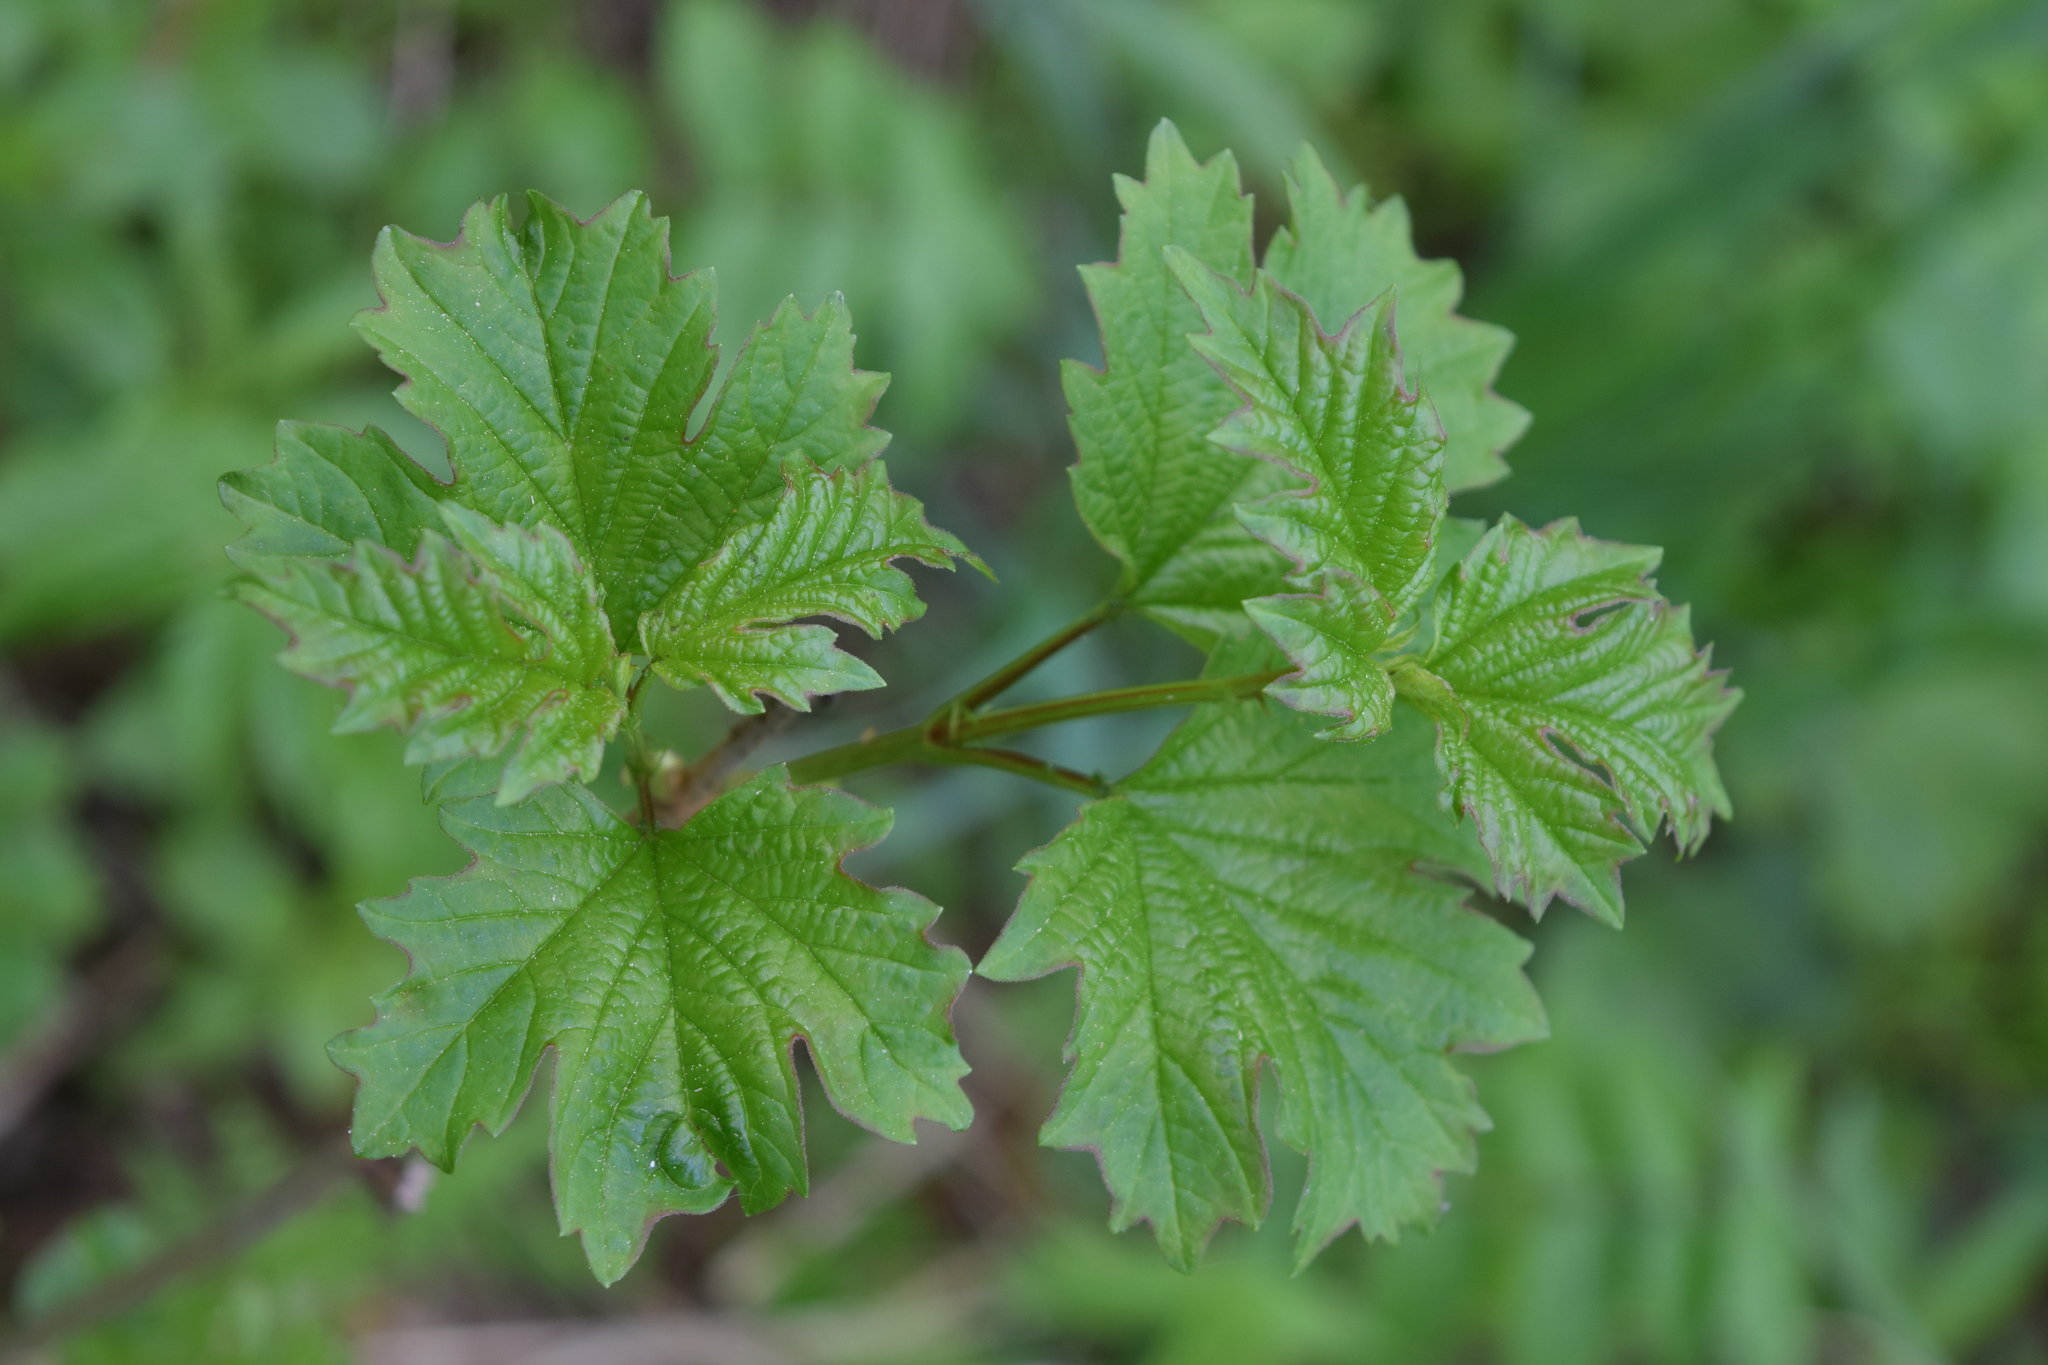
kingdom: Plantae
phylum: Tracheophyta
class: Magnoliopsida
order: Dipsacales
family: Viburnaceae
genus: Viburnum
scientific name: Viburnum opulus
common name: Guelder-rose
